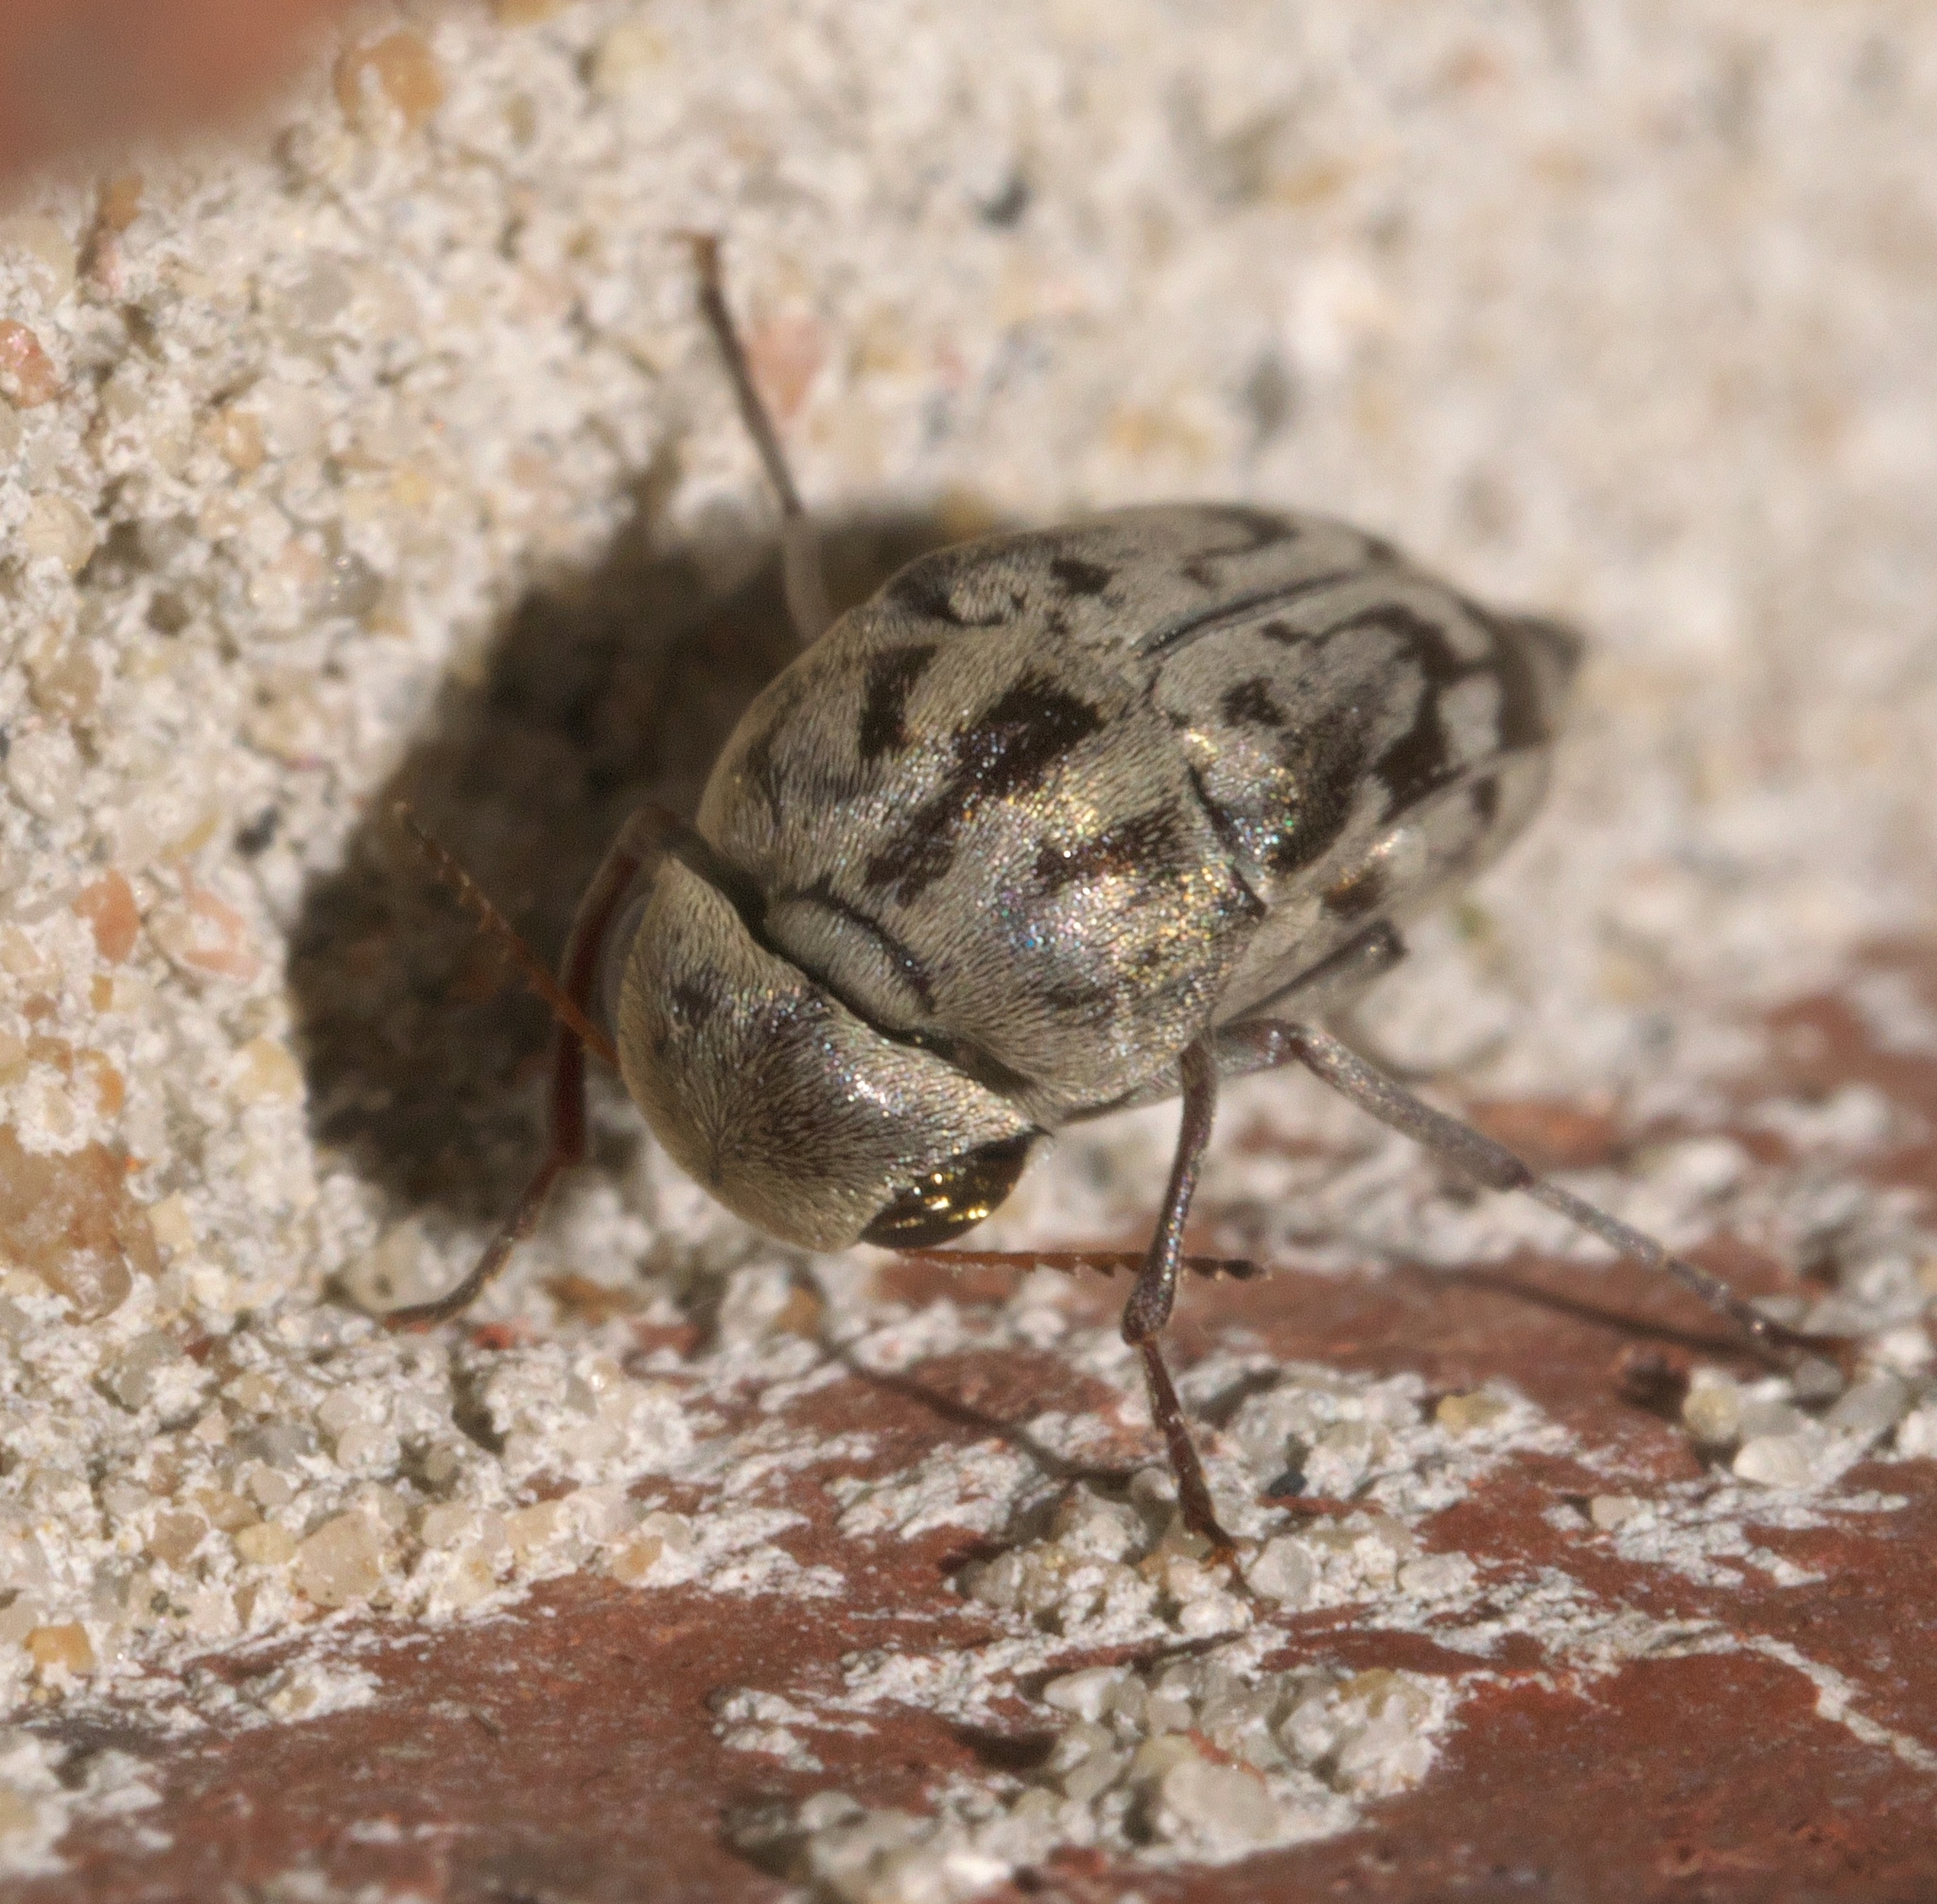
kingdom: Animalia
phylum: Arthropoda
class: Insecta
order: Coleoptera
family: Mordellidae
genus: Yakuhananomia
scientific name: Yakuhananomia bidentata
